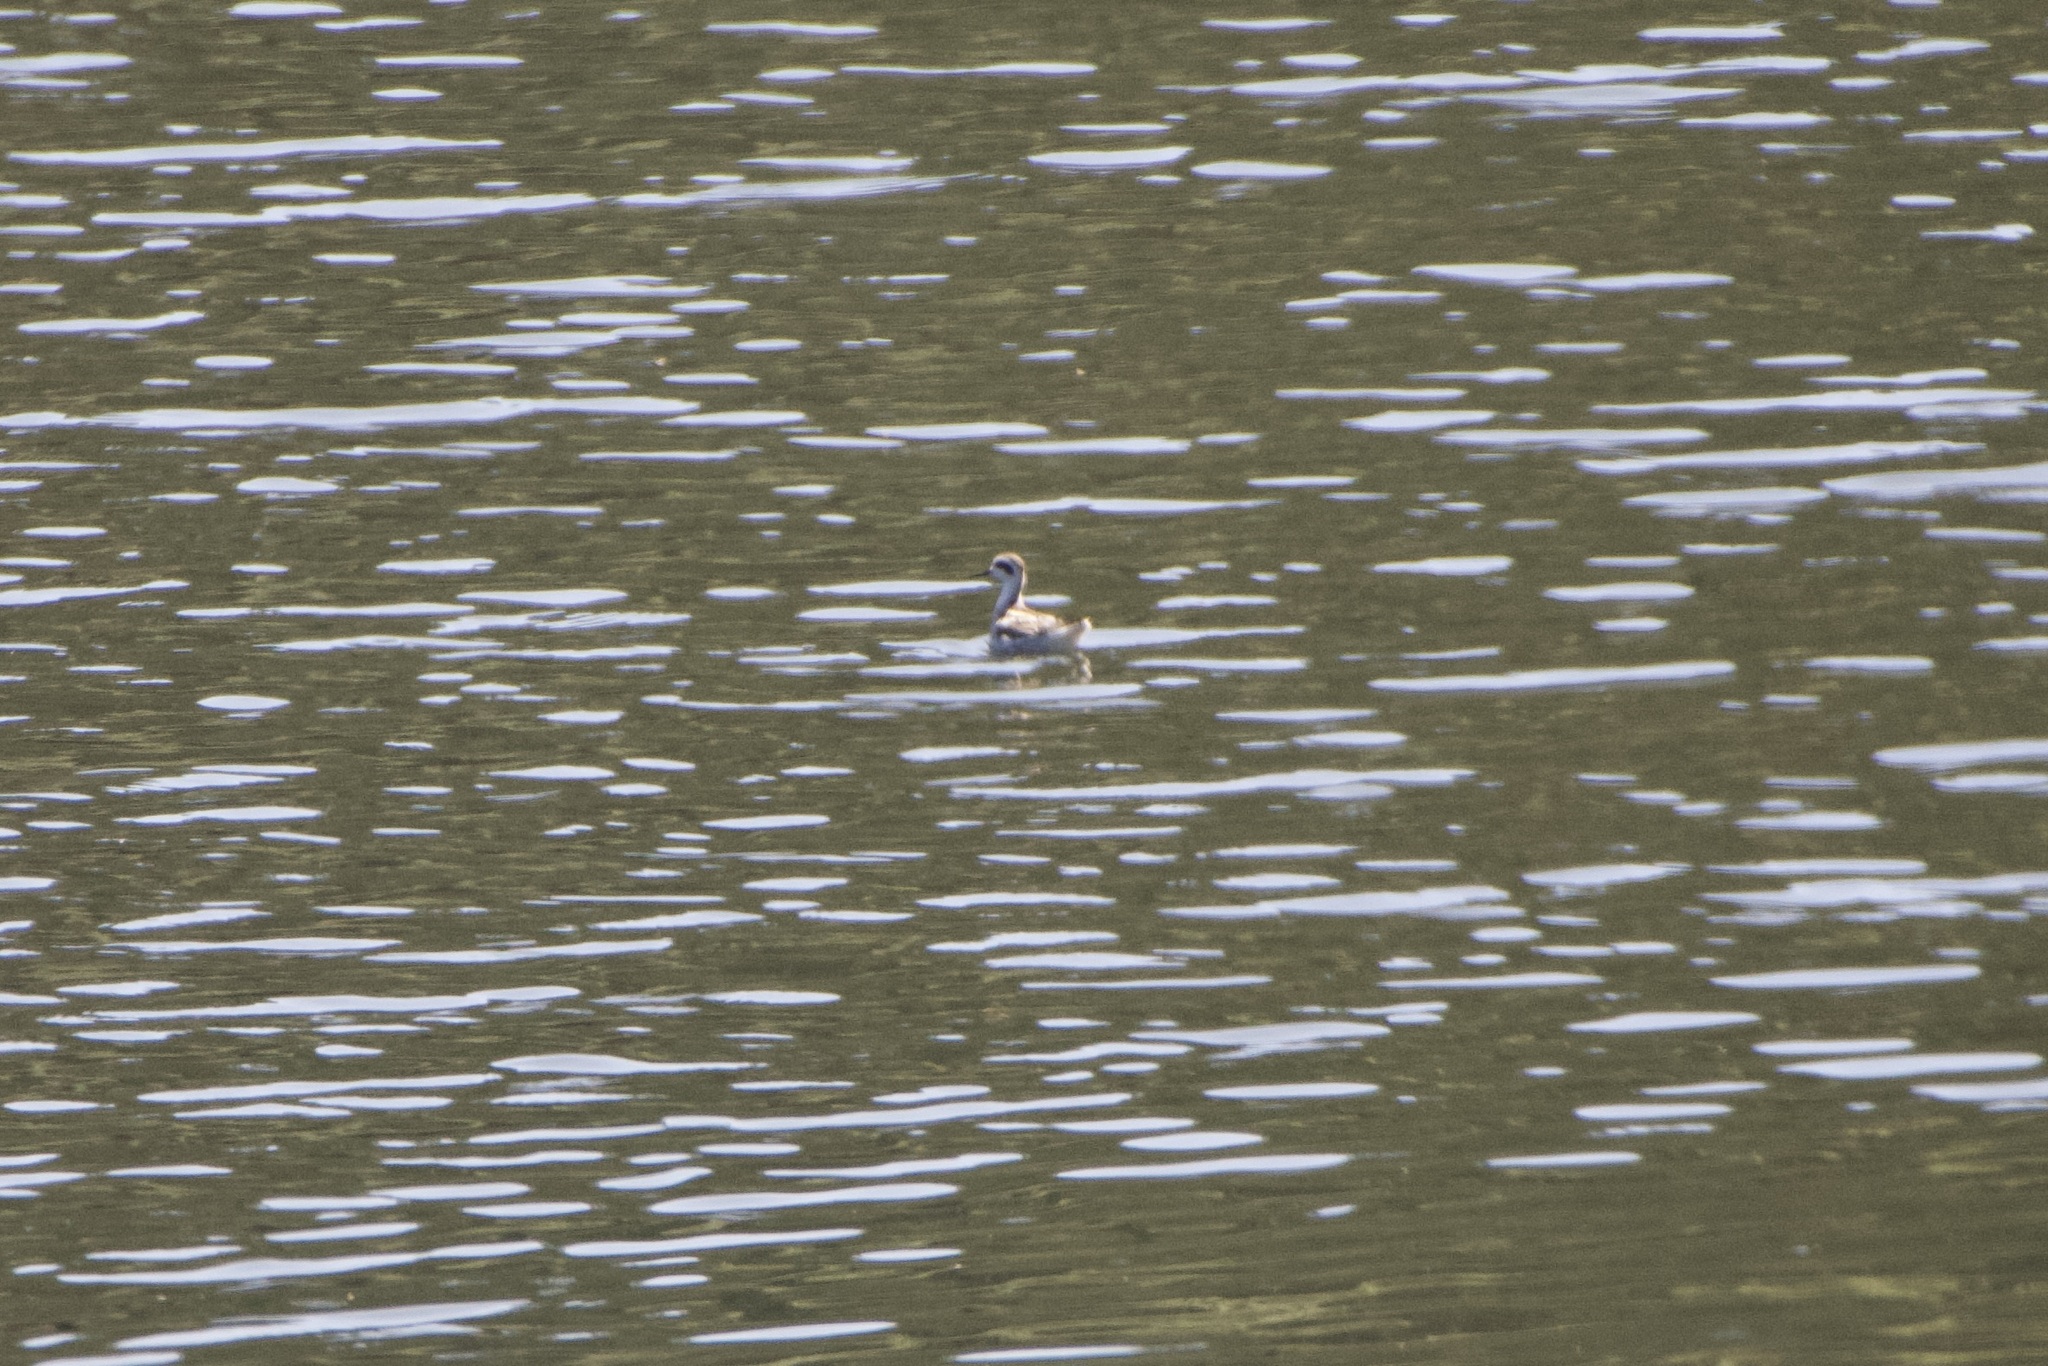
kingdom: Animalia
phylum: Chordata
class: Aves
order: Charadriiformes
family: Scolopacidae
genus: Phalaropus
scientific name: Phalaropus lobatus
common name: Red-necked phalarope
